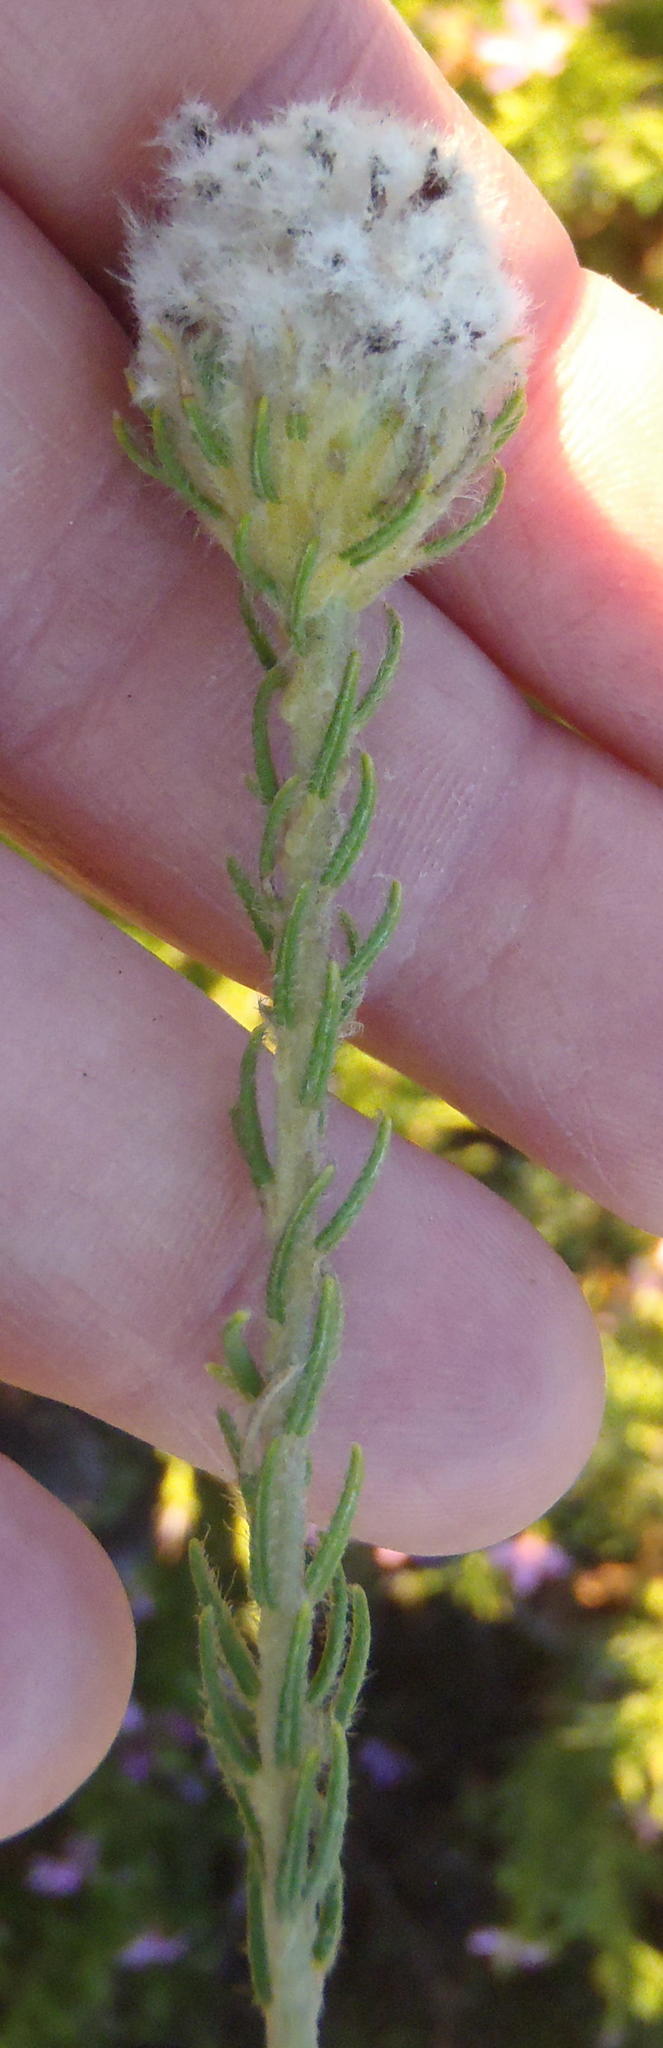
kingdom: Plantae
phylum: Tracheophyta
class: Magnoliopsida
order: Rosales
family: Rhamnaceae
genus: Phylica
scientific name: Phylica nigromontana
